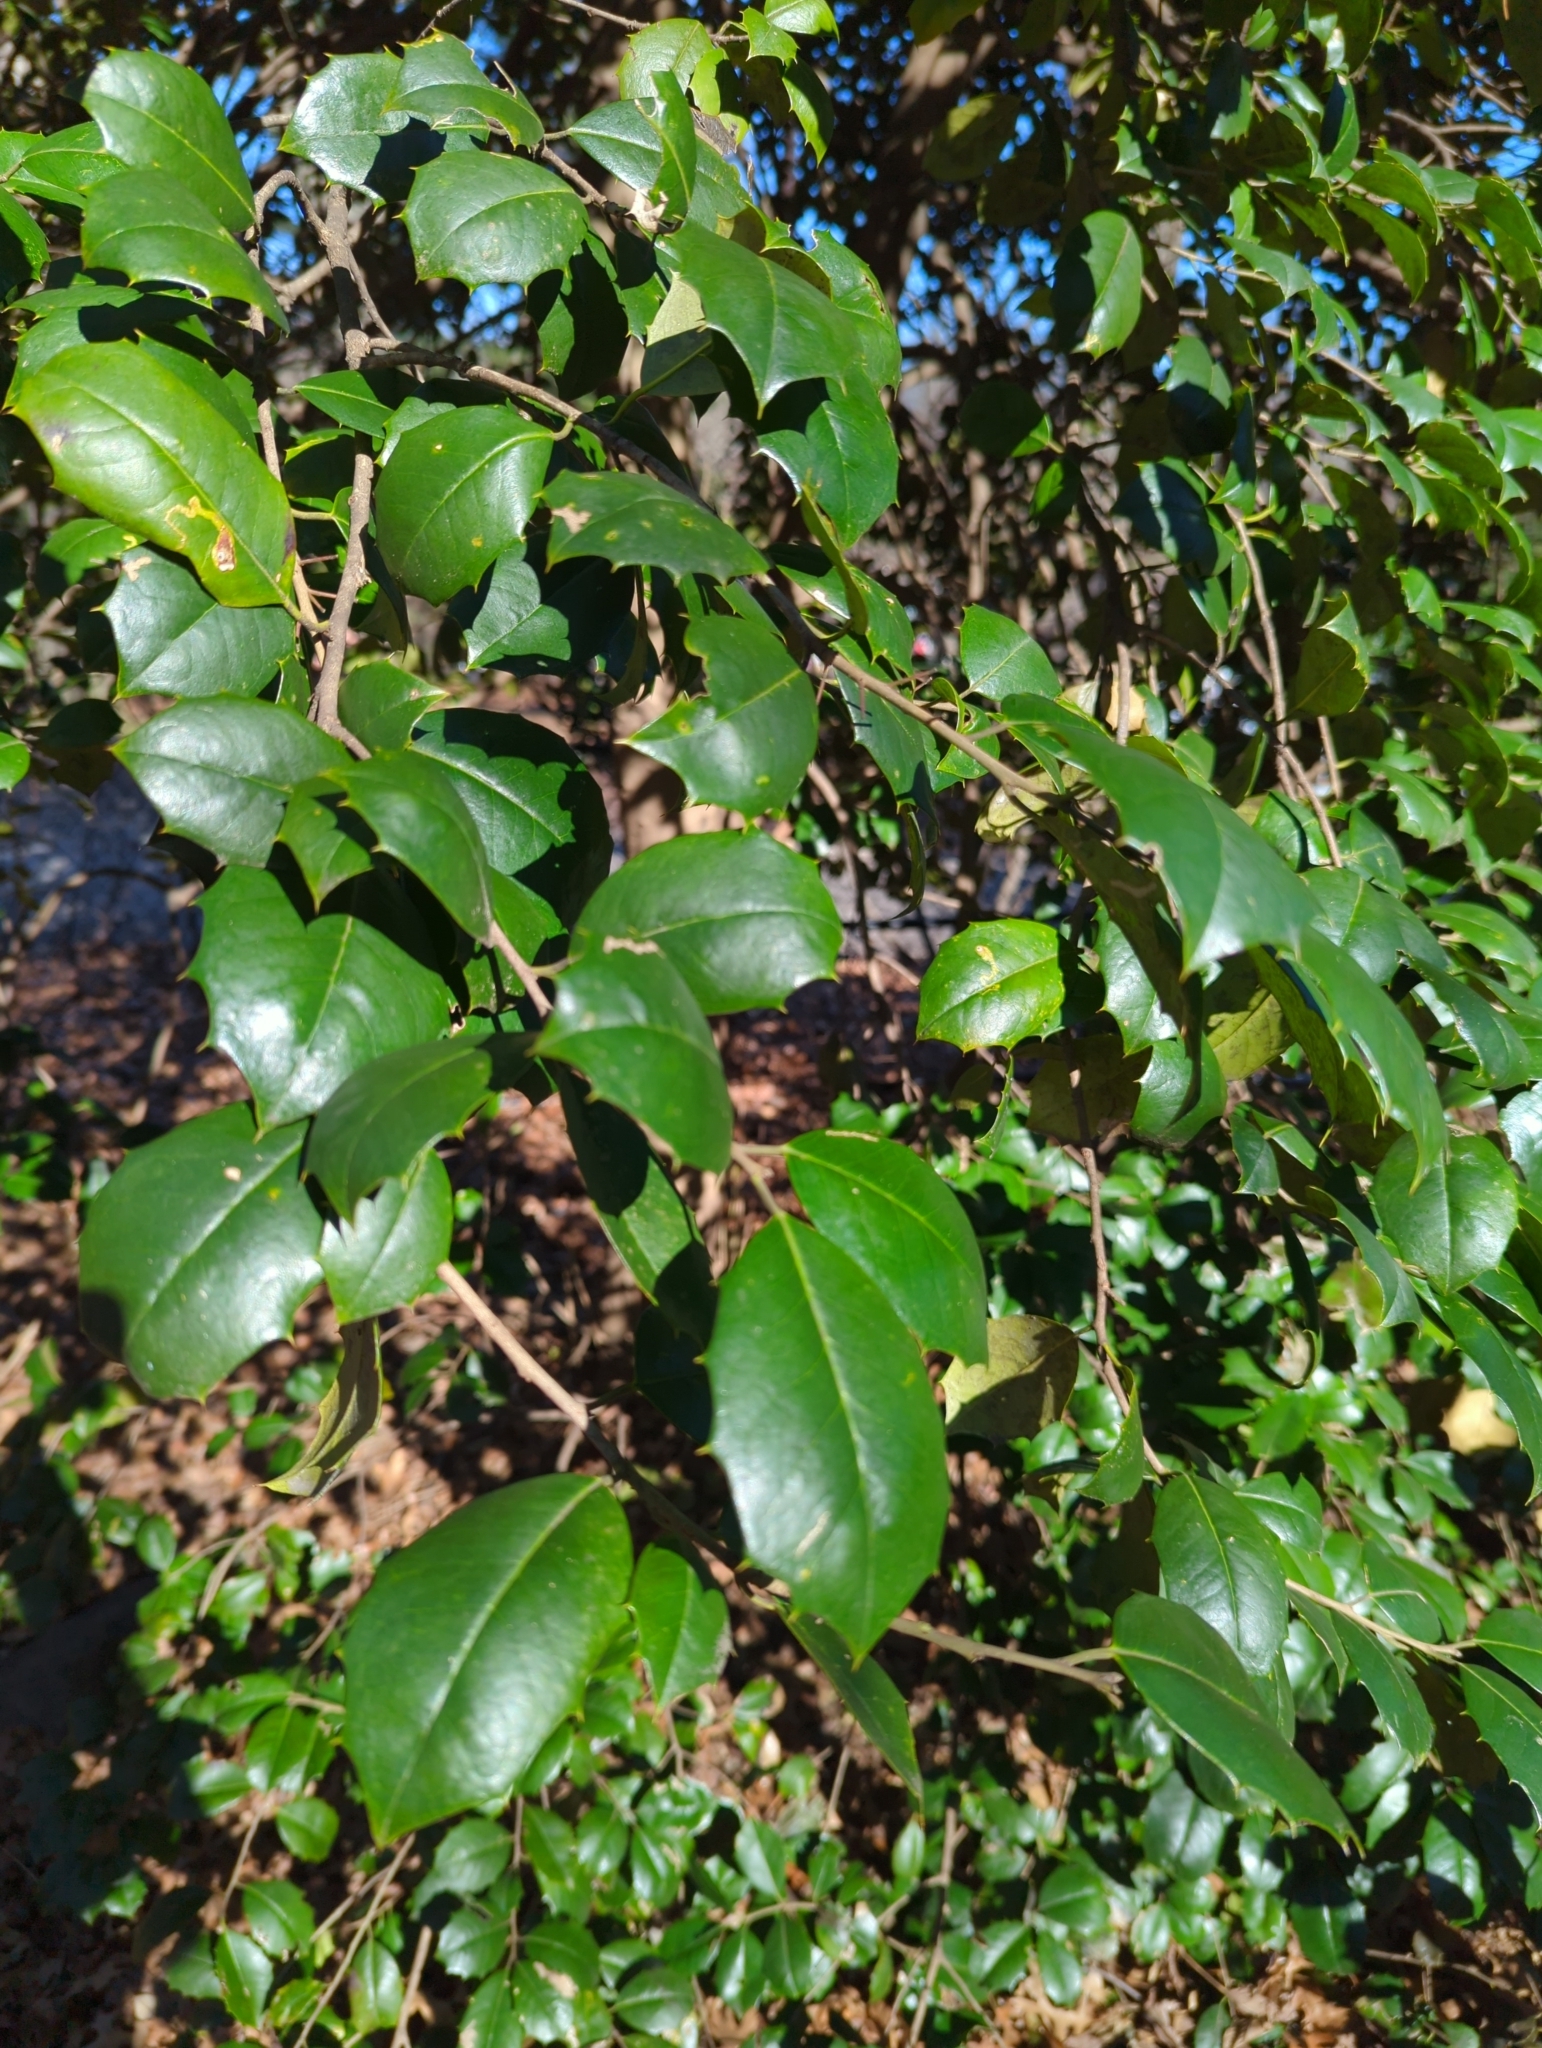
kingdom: Plantae
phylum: Tracheophyta
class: Magnoliopsida
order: Aquifoliales
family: Aquifoliaceae
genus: Ilex
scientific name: Ilex opaca
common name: American holly
